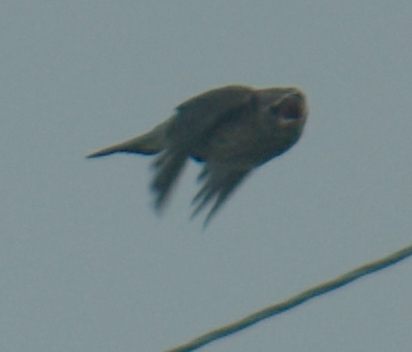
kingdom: Animalia
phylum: Chordata
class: Aves
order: Passeriformes
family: Bombycillidae
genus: Bombycilla
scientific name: Bombycilla cedrorum
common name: Cedar waxwing
